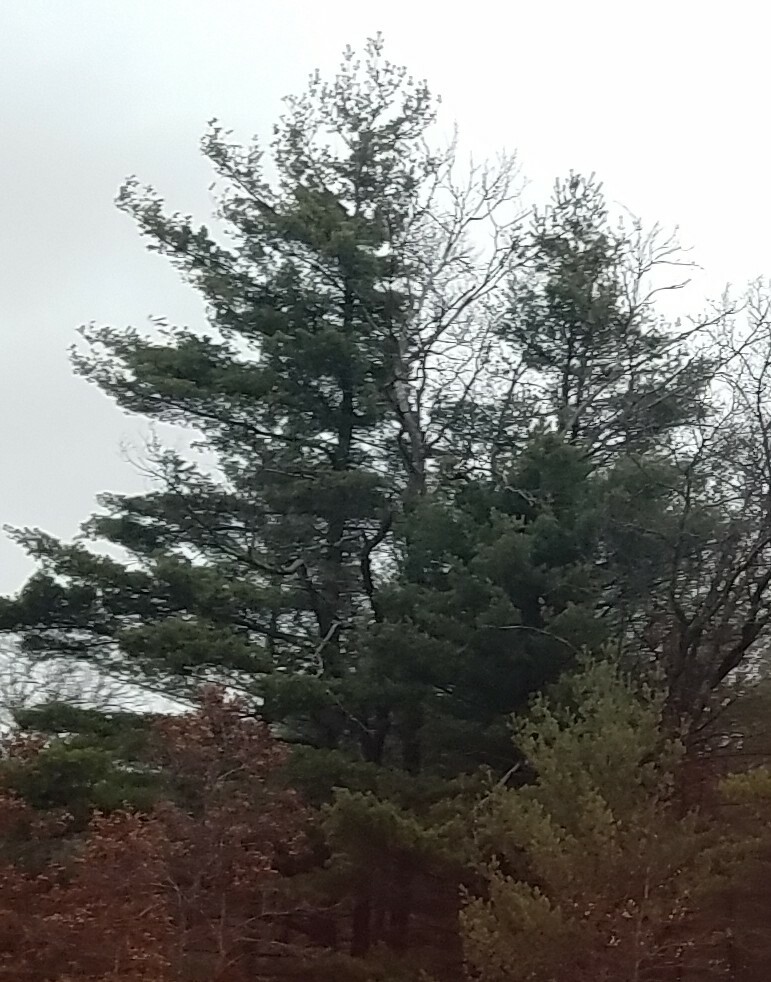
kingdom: Plantae
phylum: Tracheophyta
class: Pinopsida
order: Pinales
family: Pinaceae
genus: Pinus
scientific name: Pinus strobus
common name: Weymouth pine
